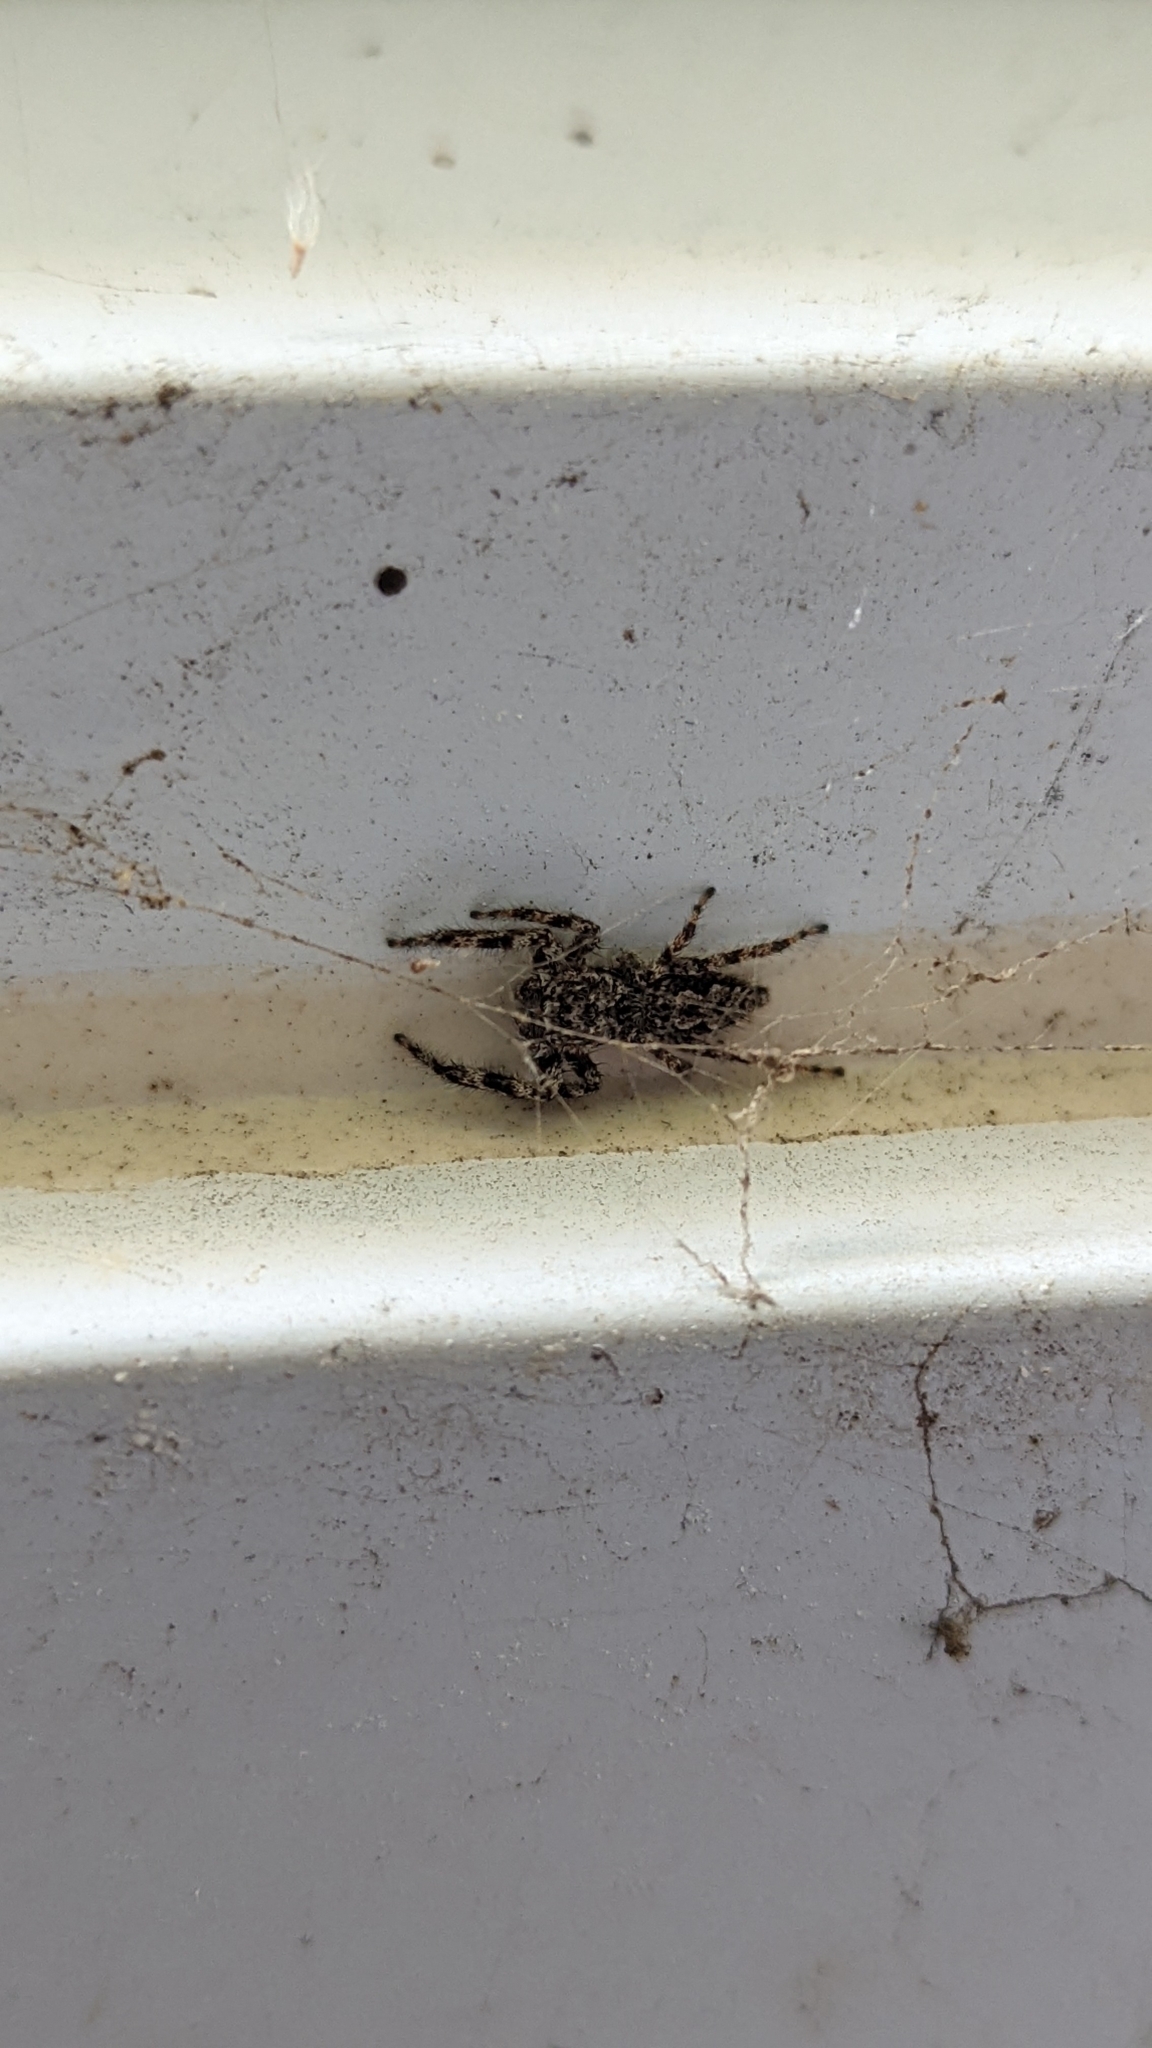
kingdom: Animalia
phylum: Arthropoda
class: Arachnida
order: Araneae
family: Salticidae
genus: Platycryptus
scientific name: Platycryptus undatus
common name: Tan jumping spider
